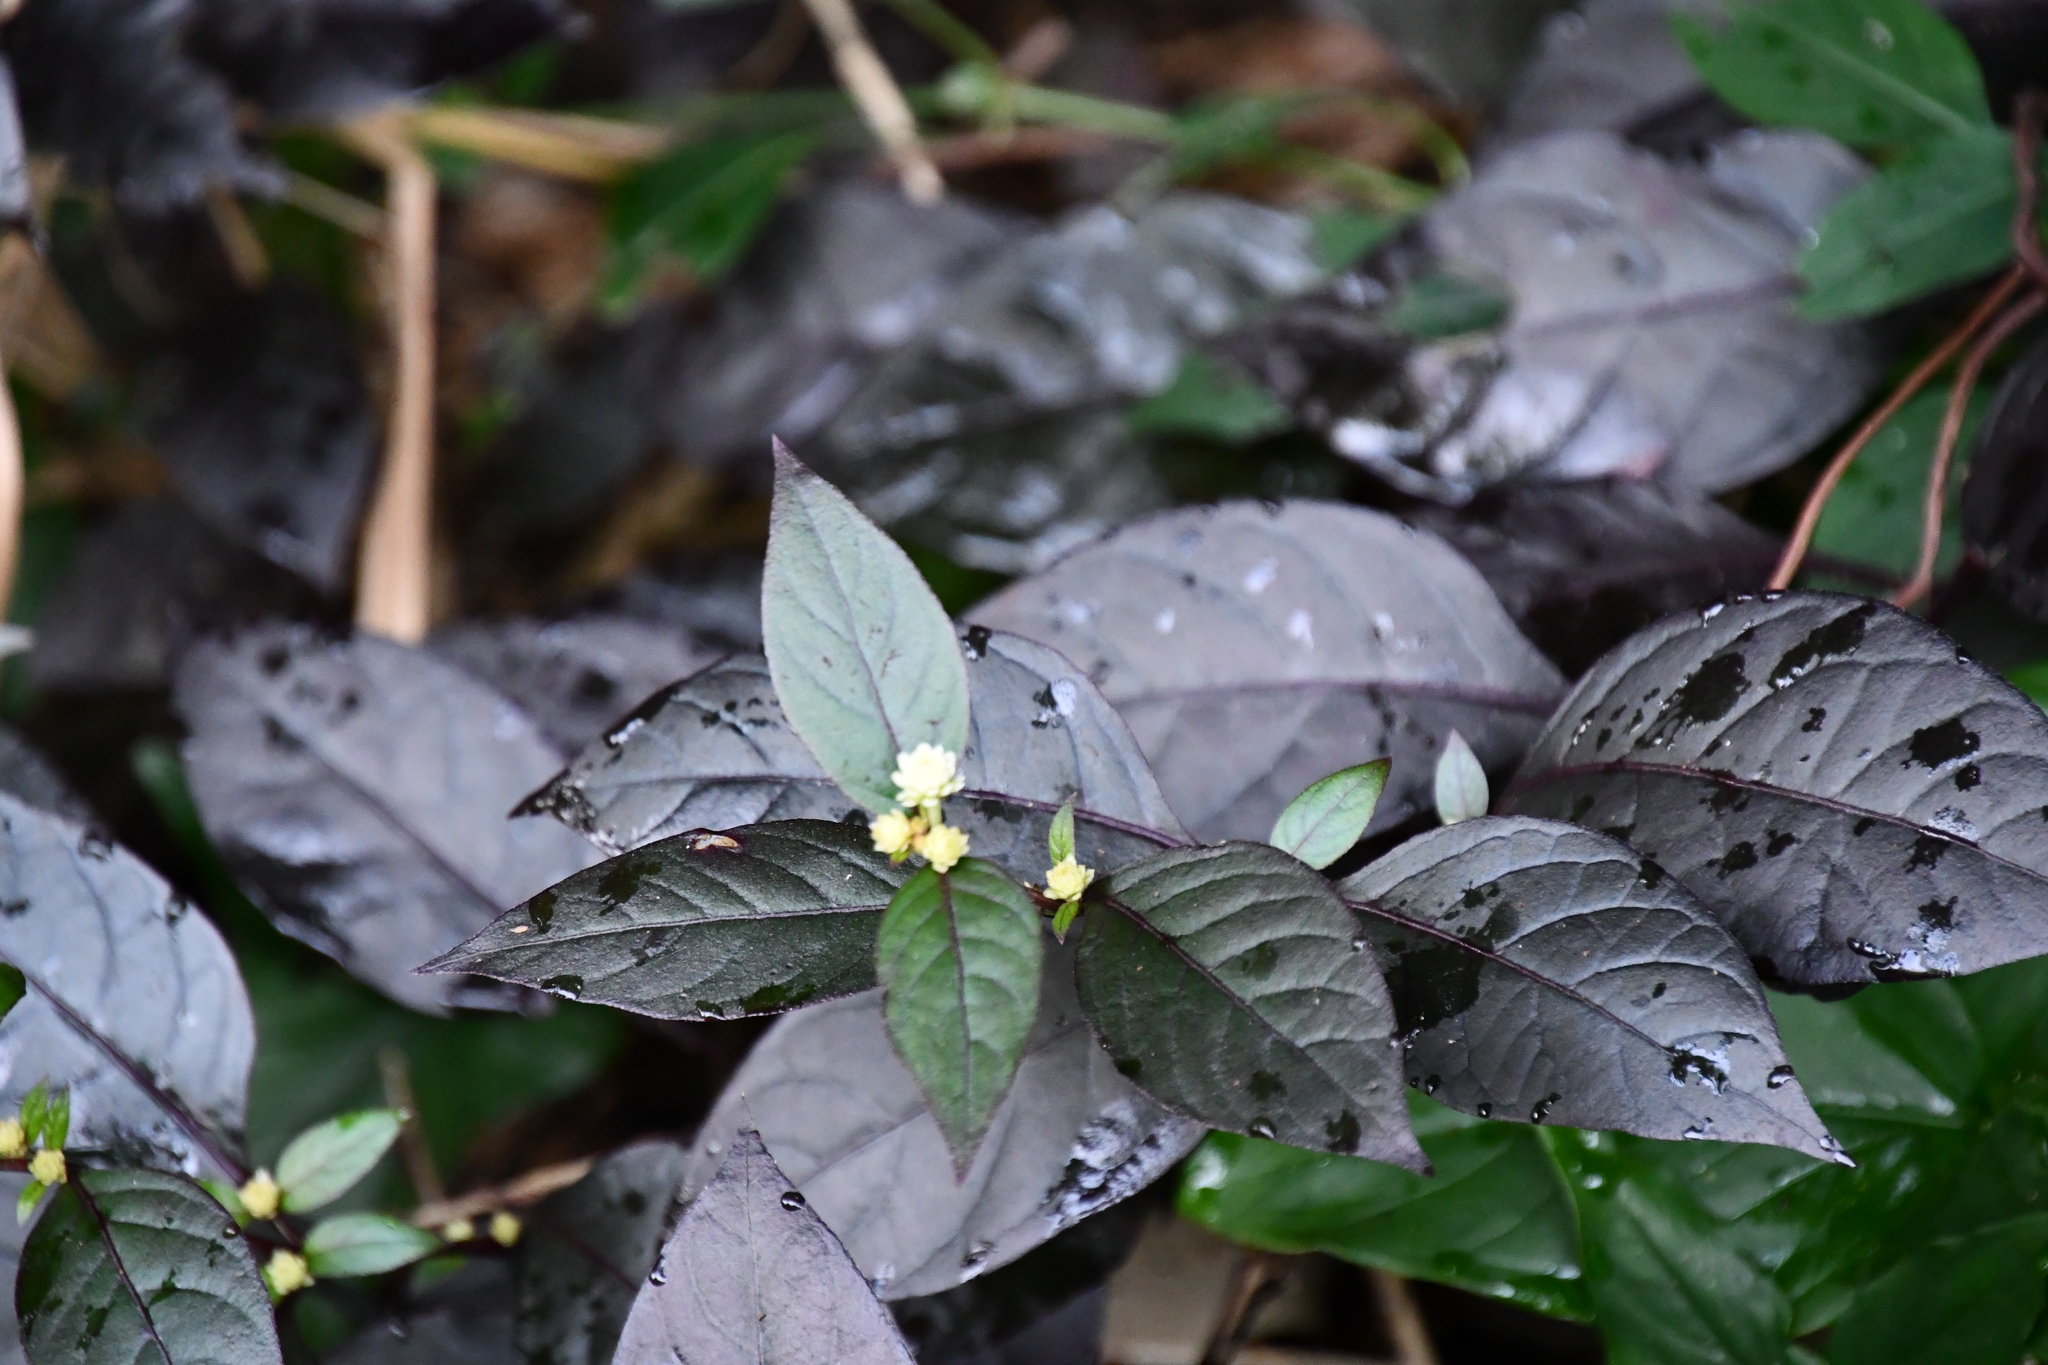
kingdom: Plantae
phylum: Tracheophyta
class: Magnoliopsida
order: Caryophyllales
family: Amaranthaceae
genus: Alternanthera
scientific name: Alternanthera brasiliana
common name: Brazilian joyweed
